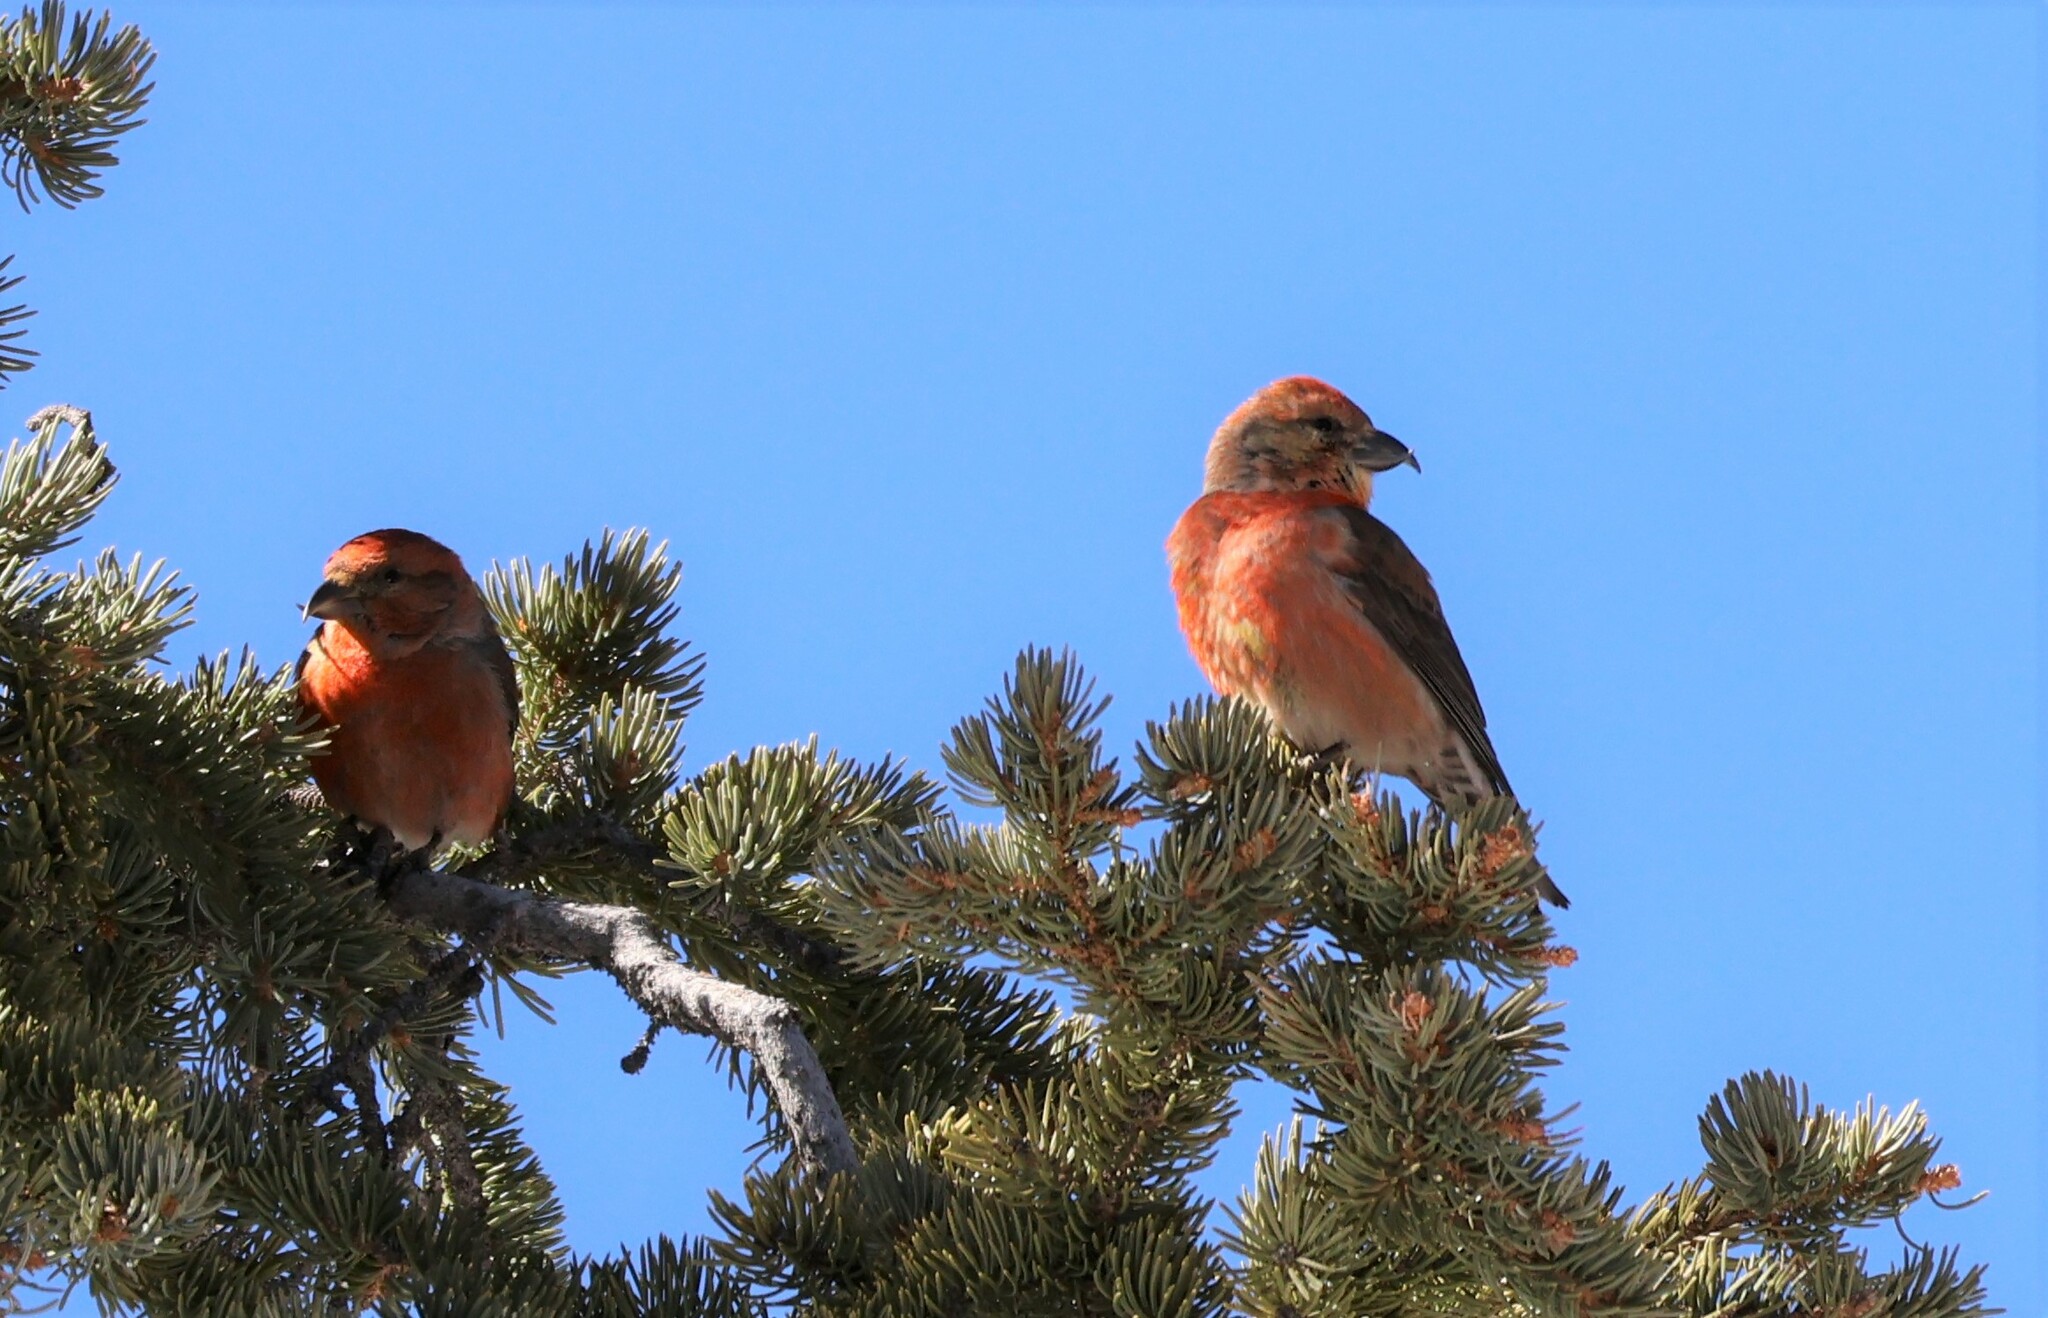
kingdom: Animalia
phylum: Chordata
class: Aves
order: Passeriformes
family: Fringillidae
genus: Loxia
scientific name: Loxia curvirostra
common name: Red crossbill
